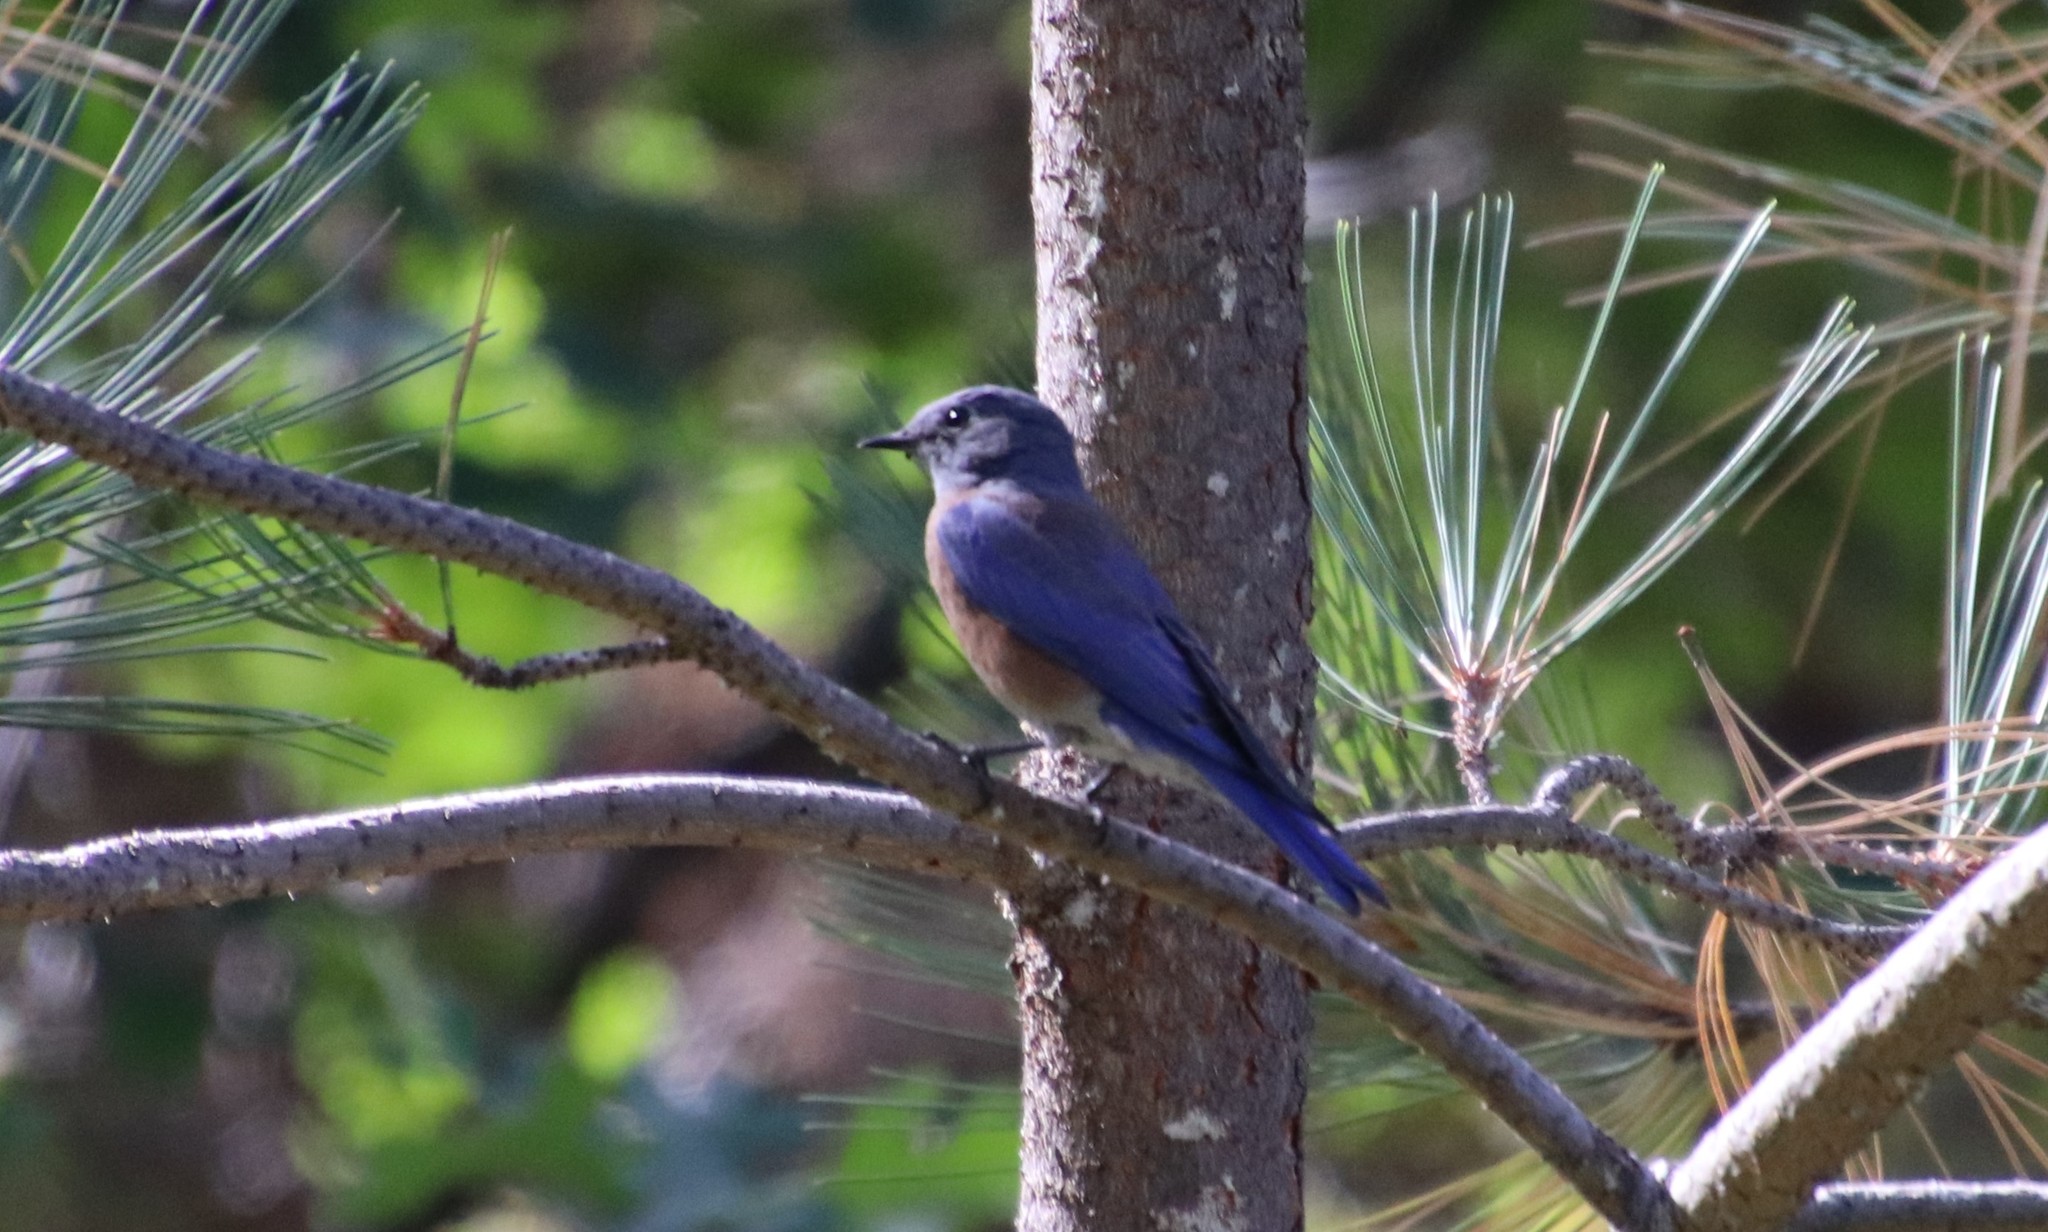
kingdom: Animalia
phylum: Chordata
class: Aves
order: Passeriformes
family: Turdidae
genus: Sialia
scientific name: Sialia mexicana
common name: Western bluebird
